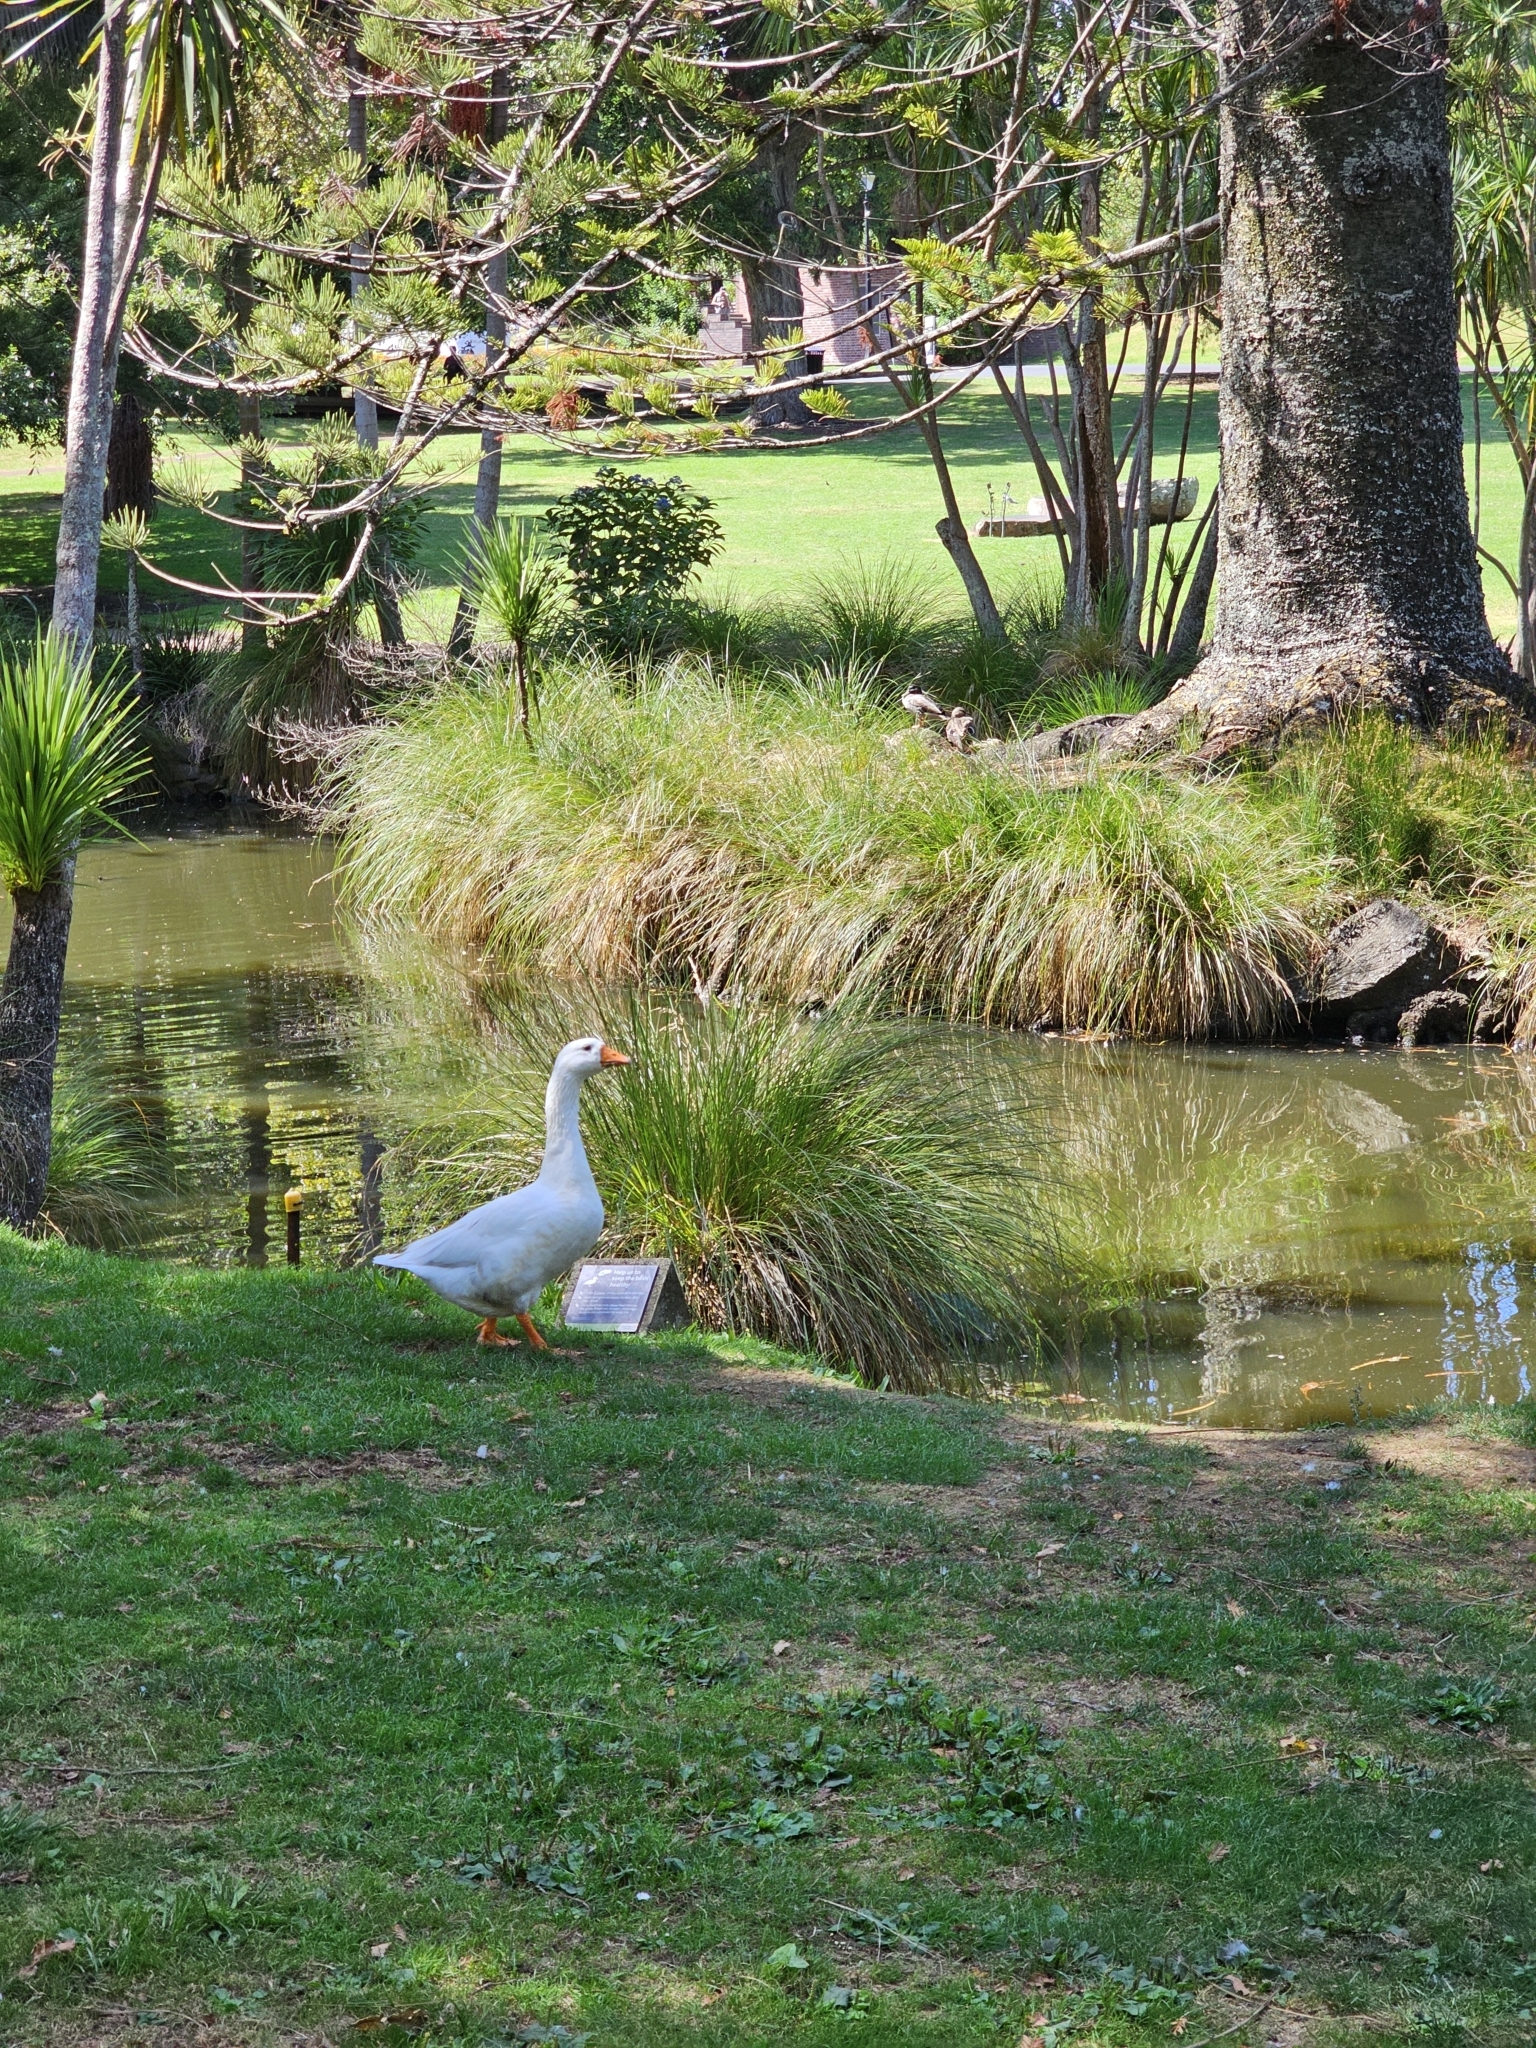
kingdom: Animalia
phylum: Chordata
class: Aves
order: Anseriformes
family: Anatidae
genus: Anser
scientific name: Anser anser
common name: Greylag goose
